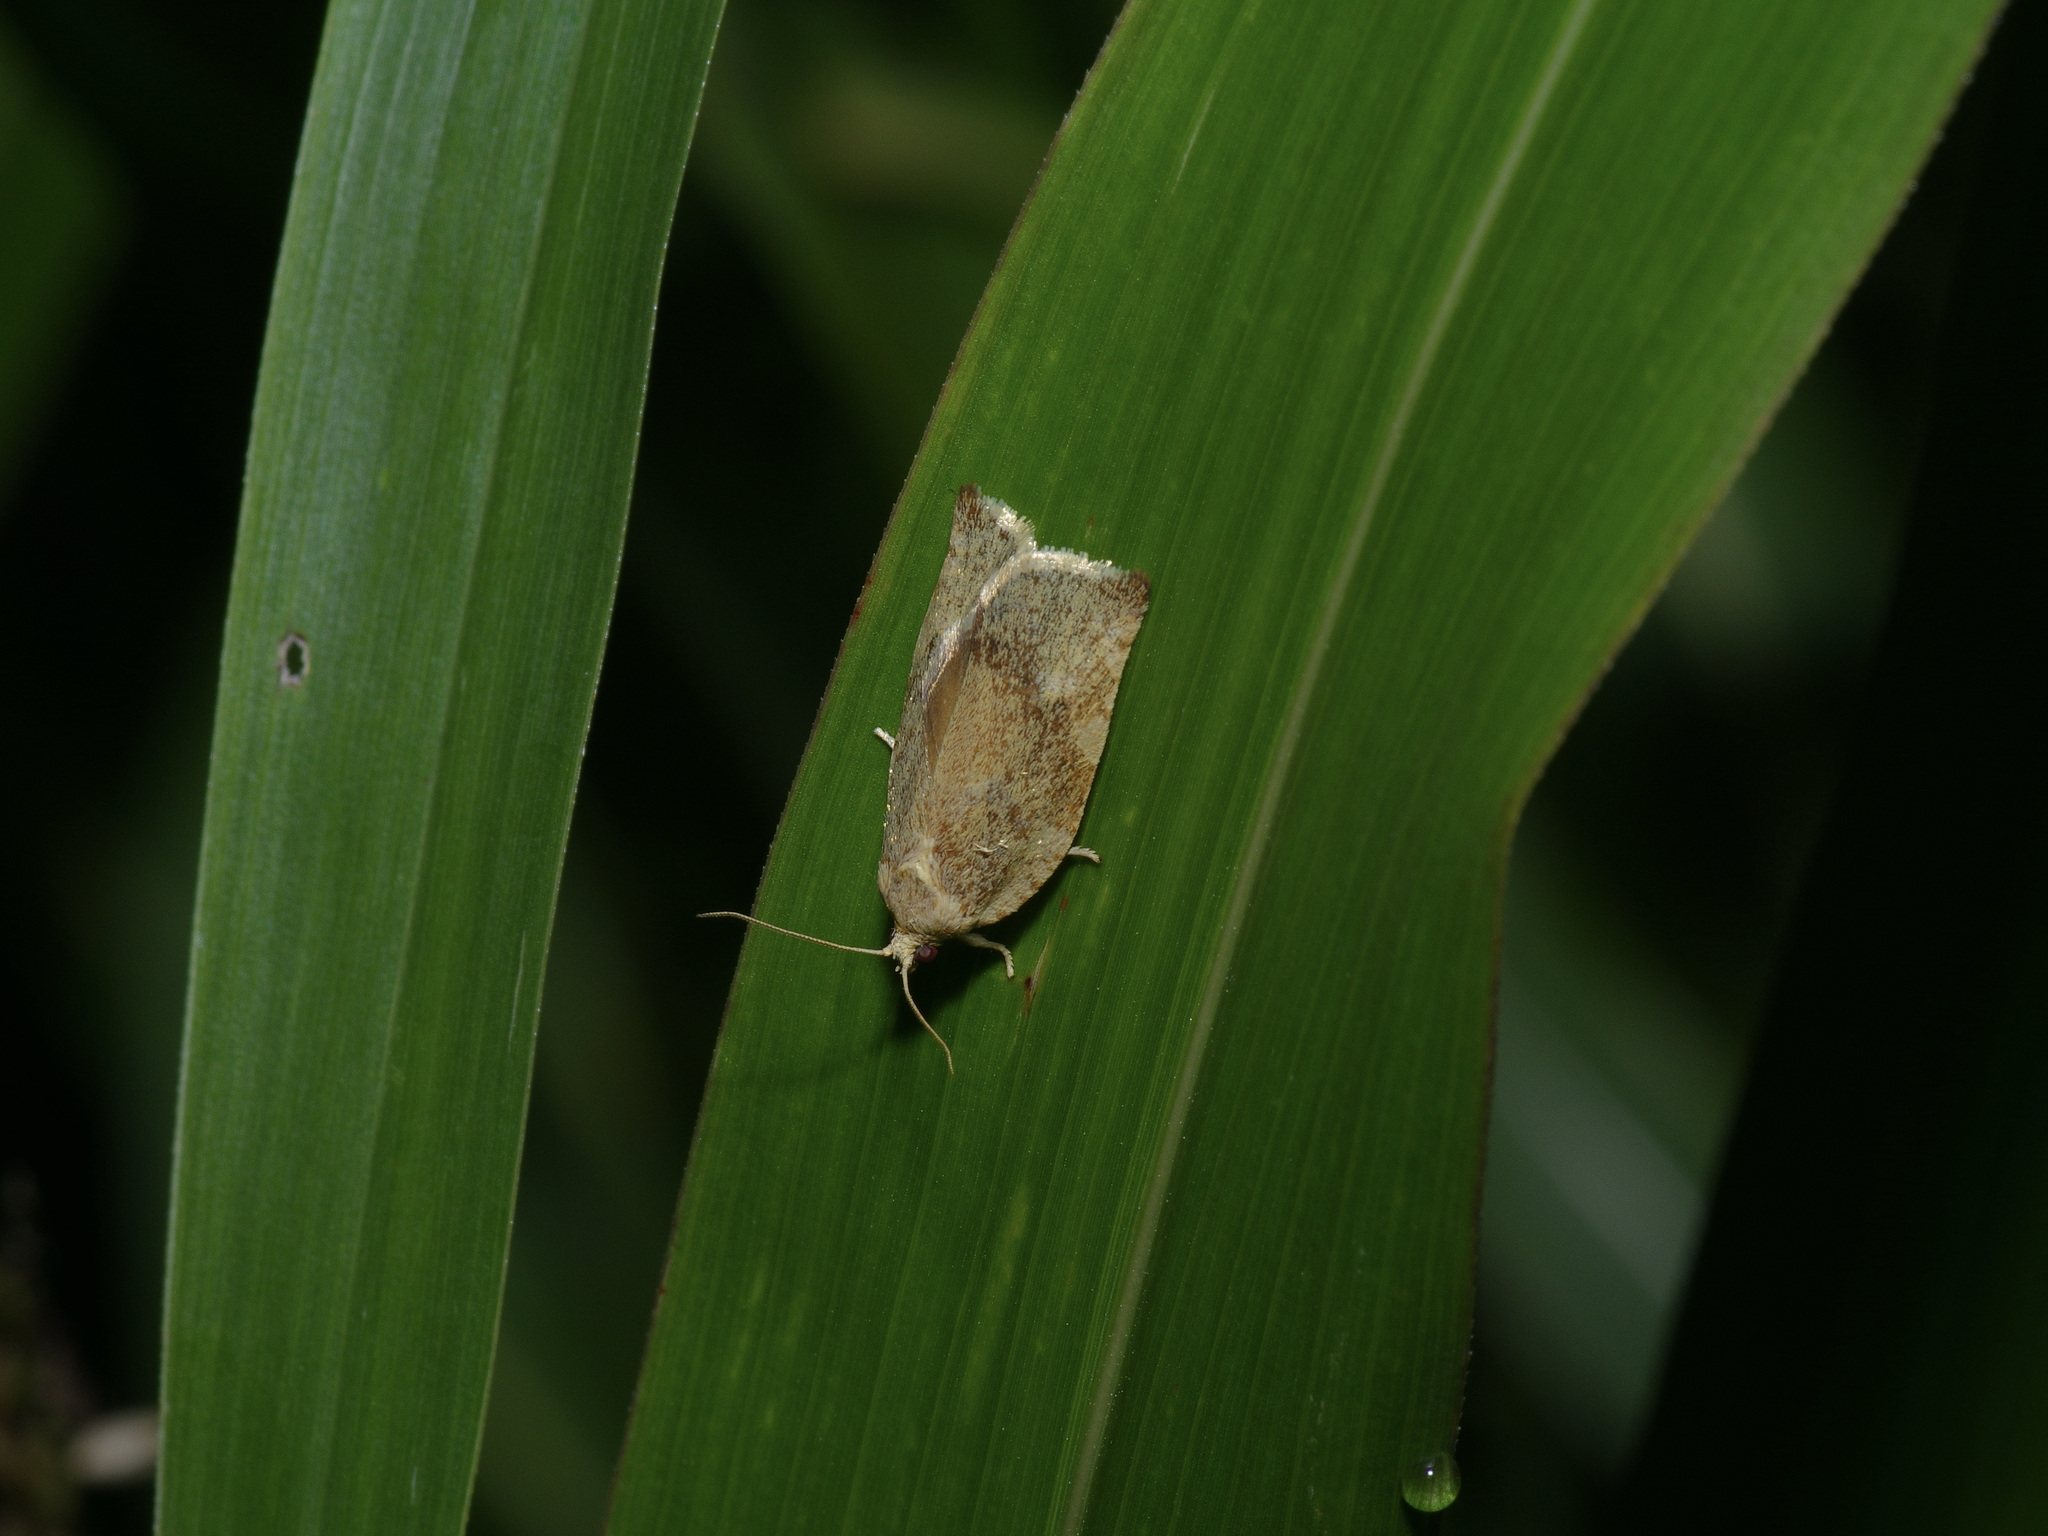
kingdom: Animalia
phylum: Arthropoda
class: Insecta
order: Lepidoptera
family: Tortricidae
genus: Archips
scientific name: Archips semiferanus
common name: Oak leafroller
